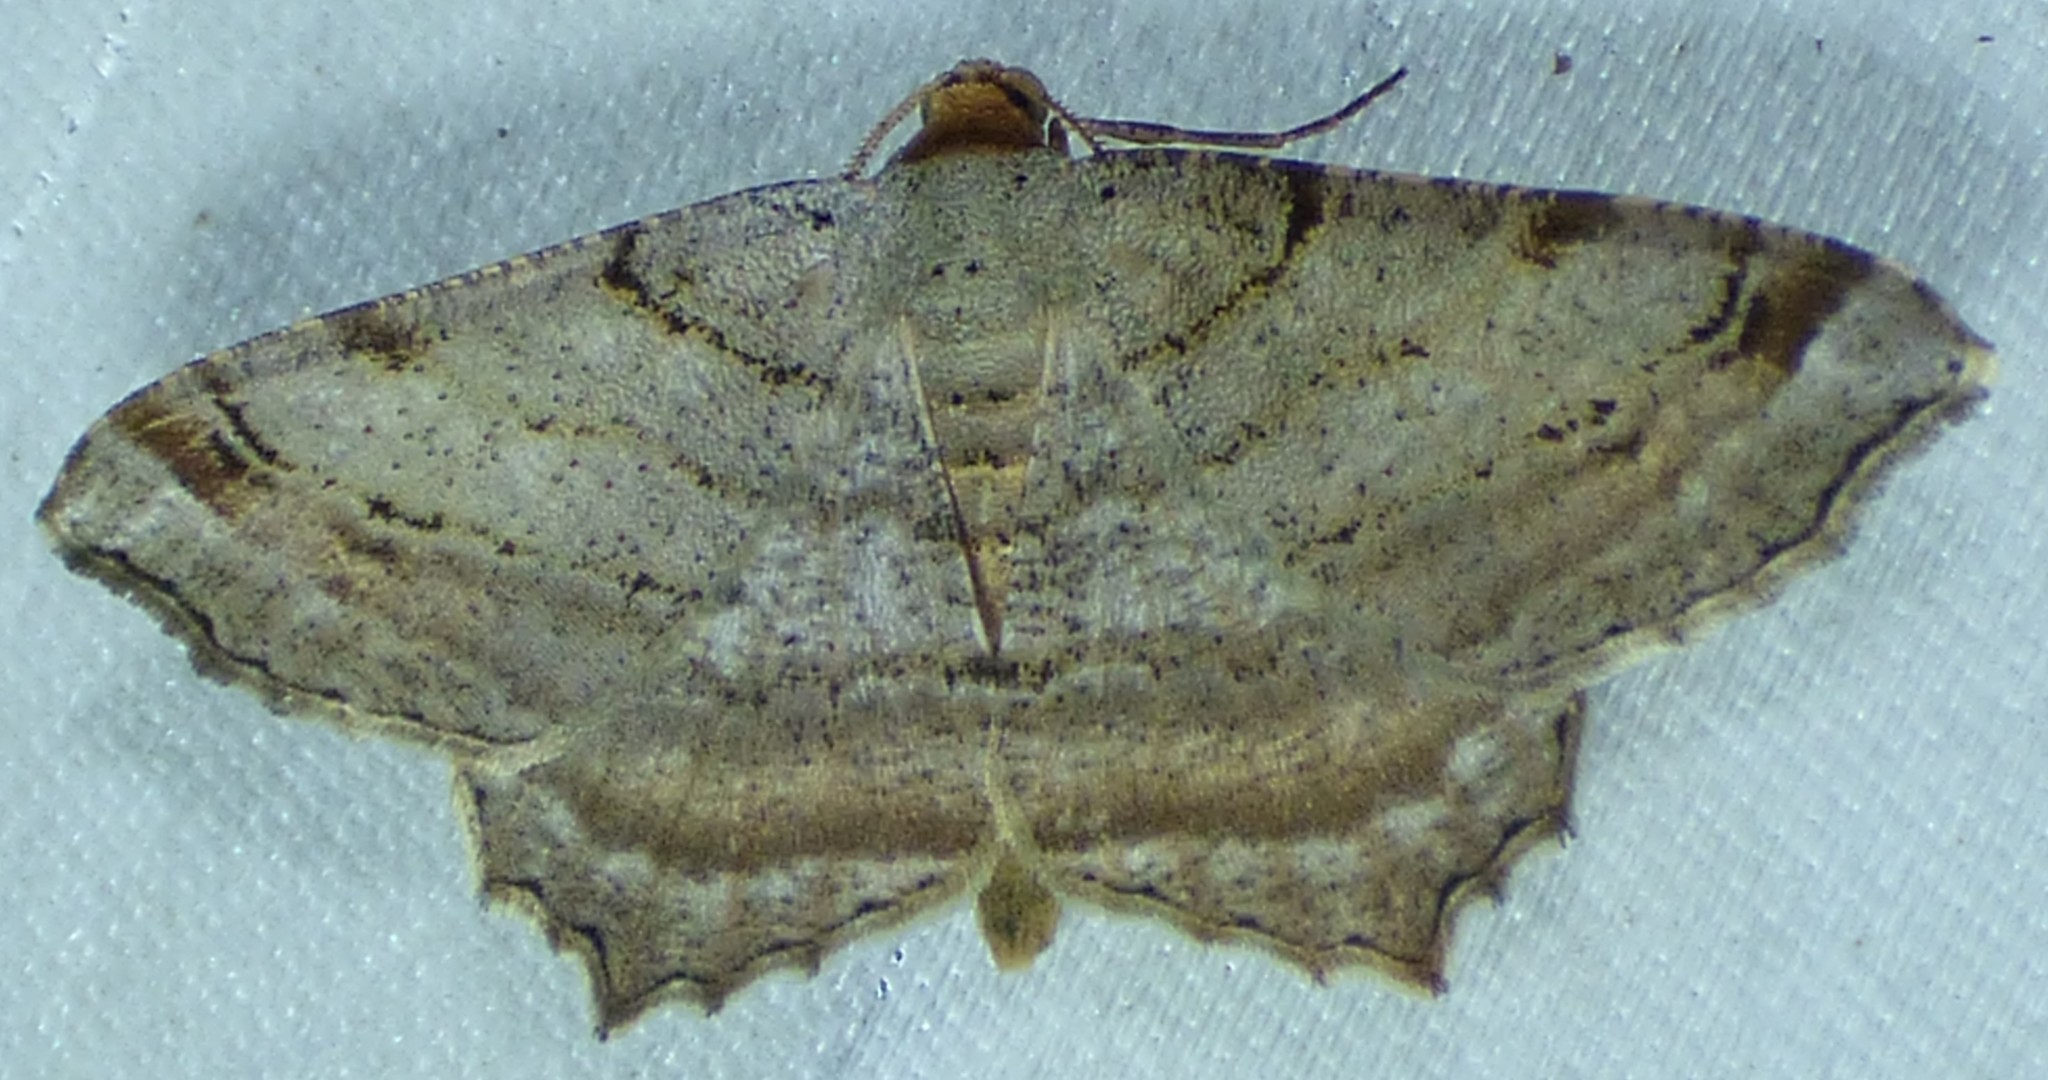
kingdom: Animalia
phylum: Arthropoda
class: Insecta
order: Lepidoptera
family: Geometridae
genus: Macaria
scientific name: Macaria multilineata
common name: Many-lined angle
